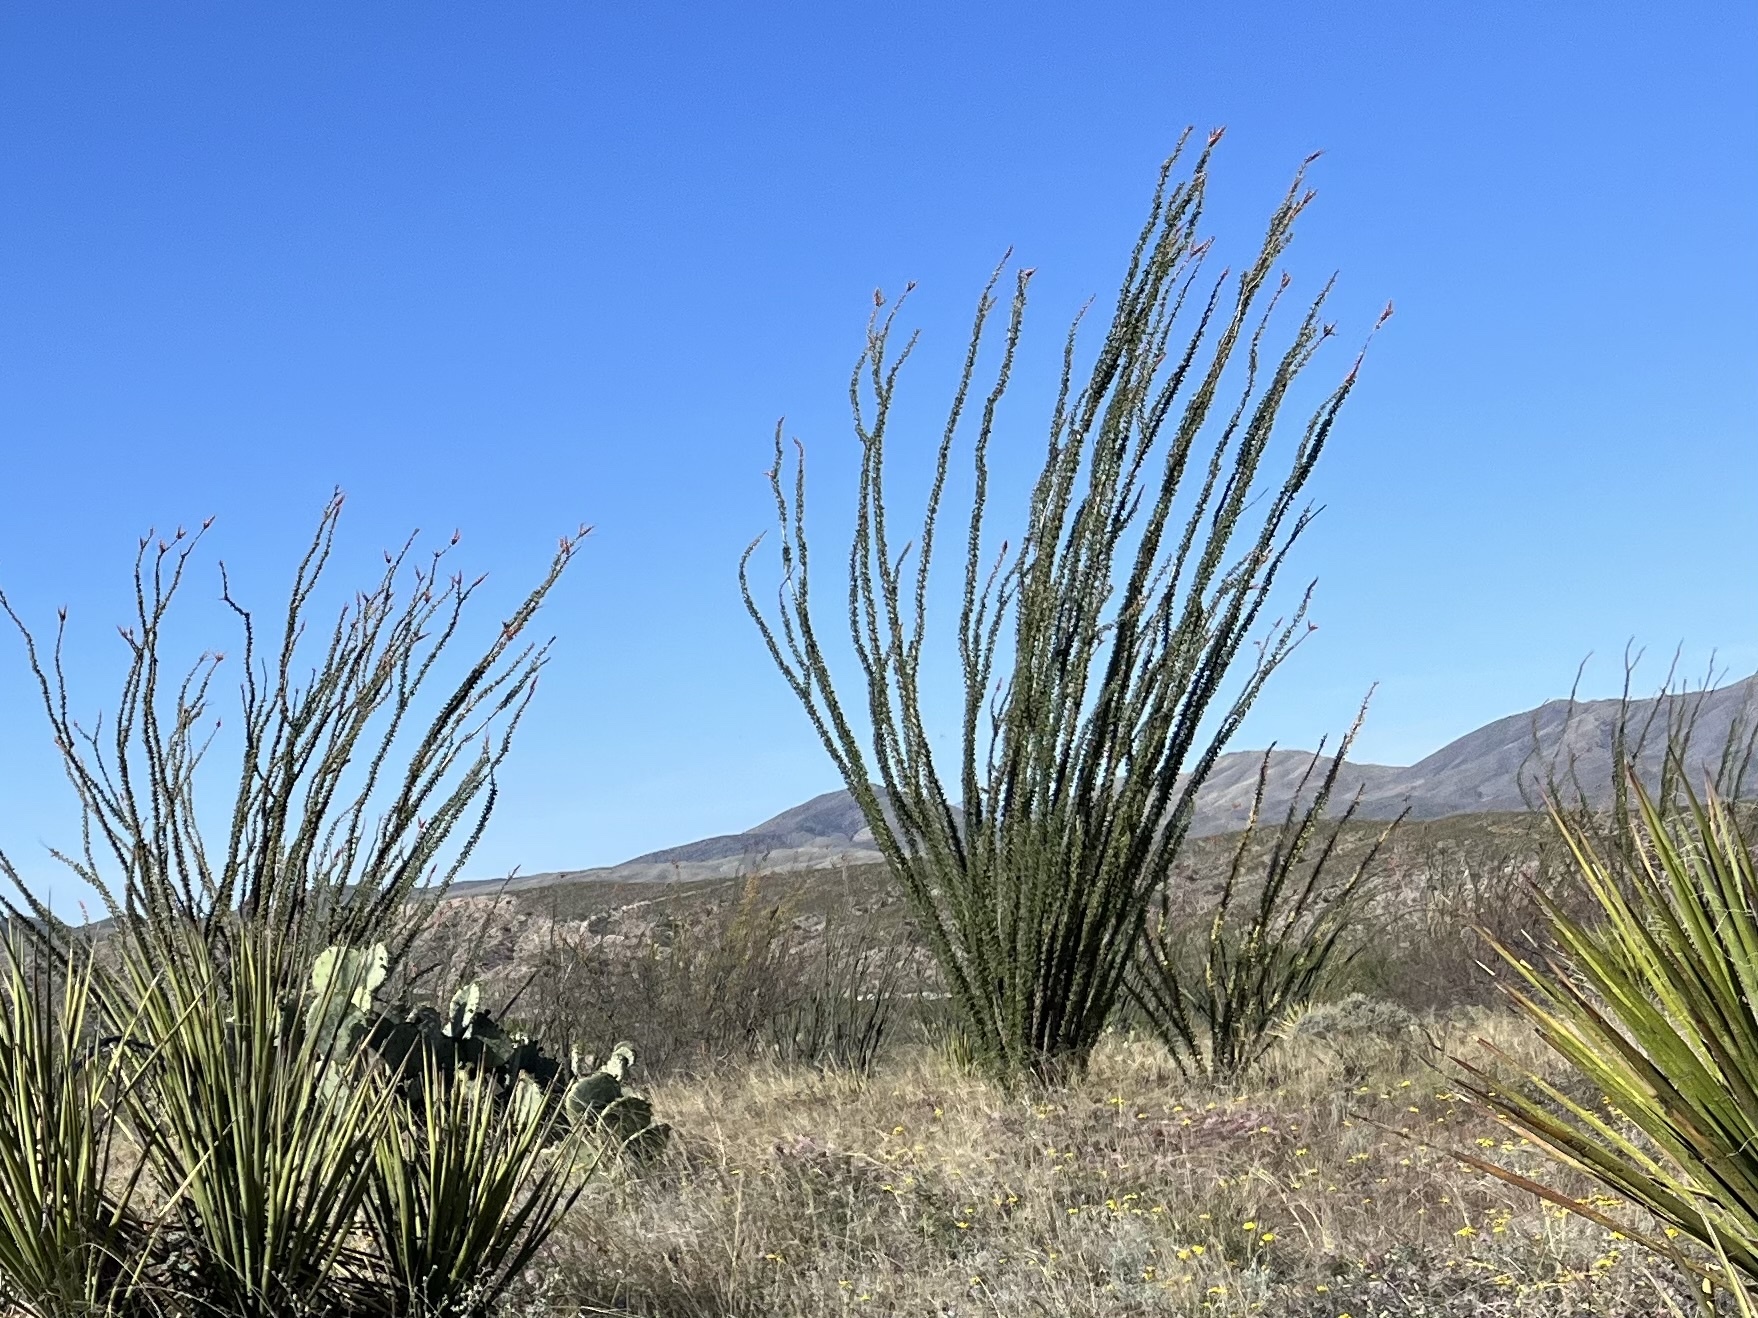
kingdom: Plantae
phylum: Tracheophyta
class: Magnoliopsida
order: Ericales
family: Fouquieriaceae
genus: Fouquieria
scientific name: Fouquieria splendens
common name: Vine-cactus
